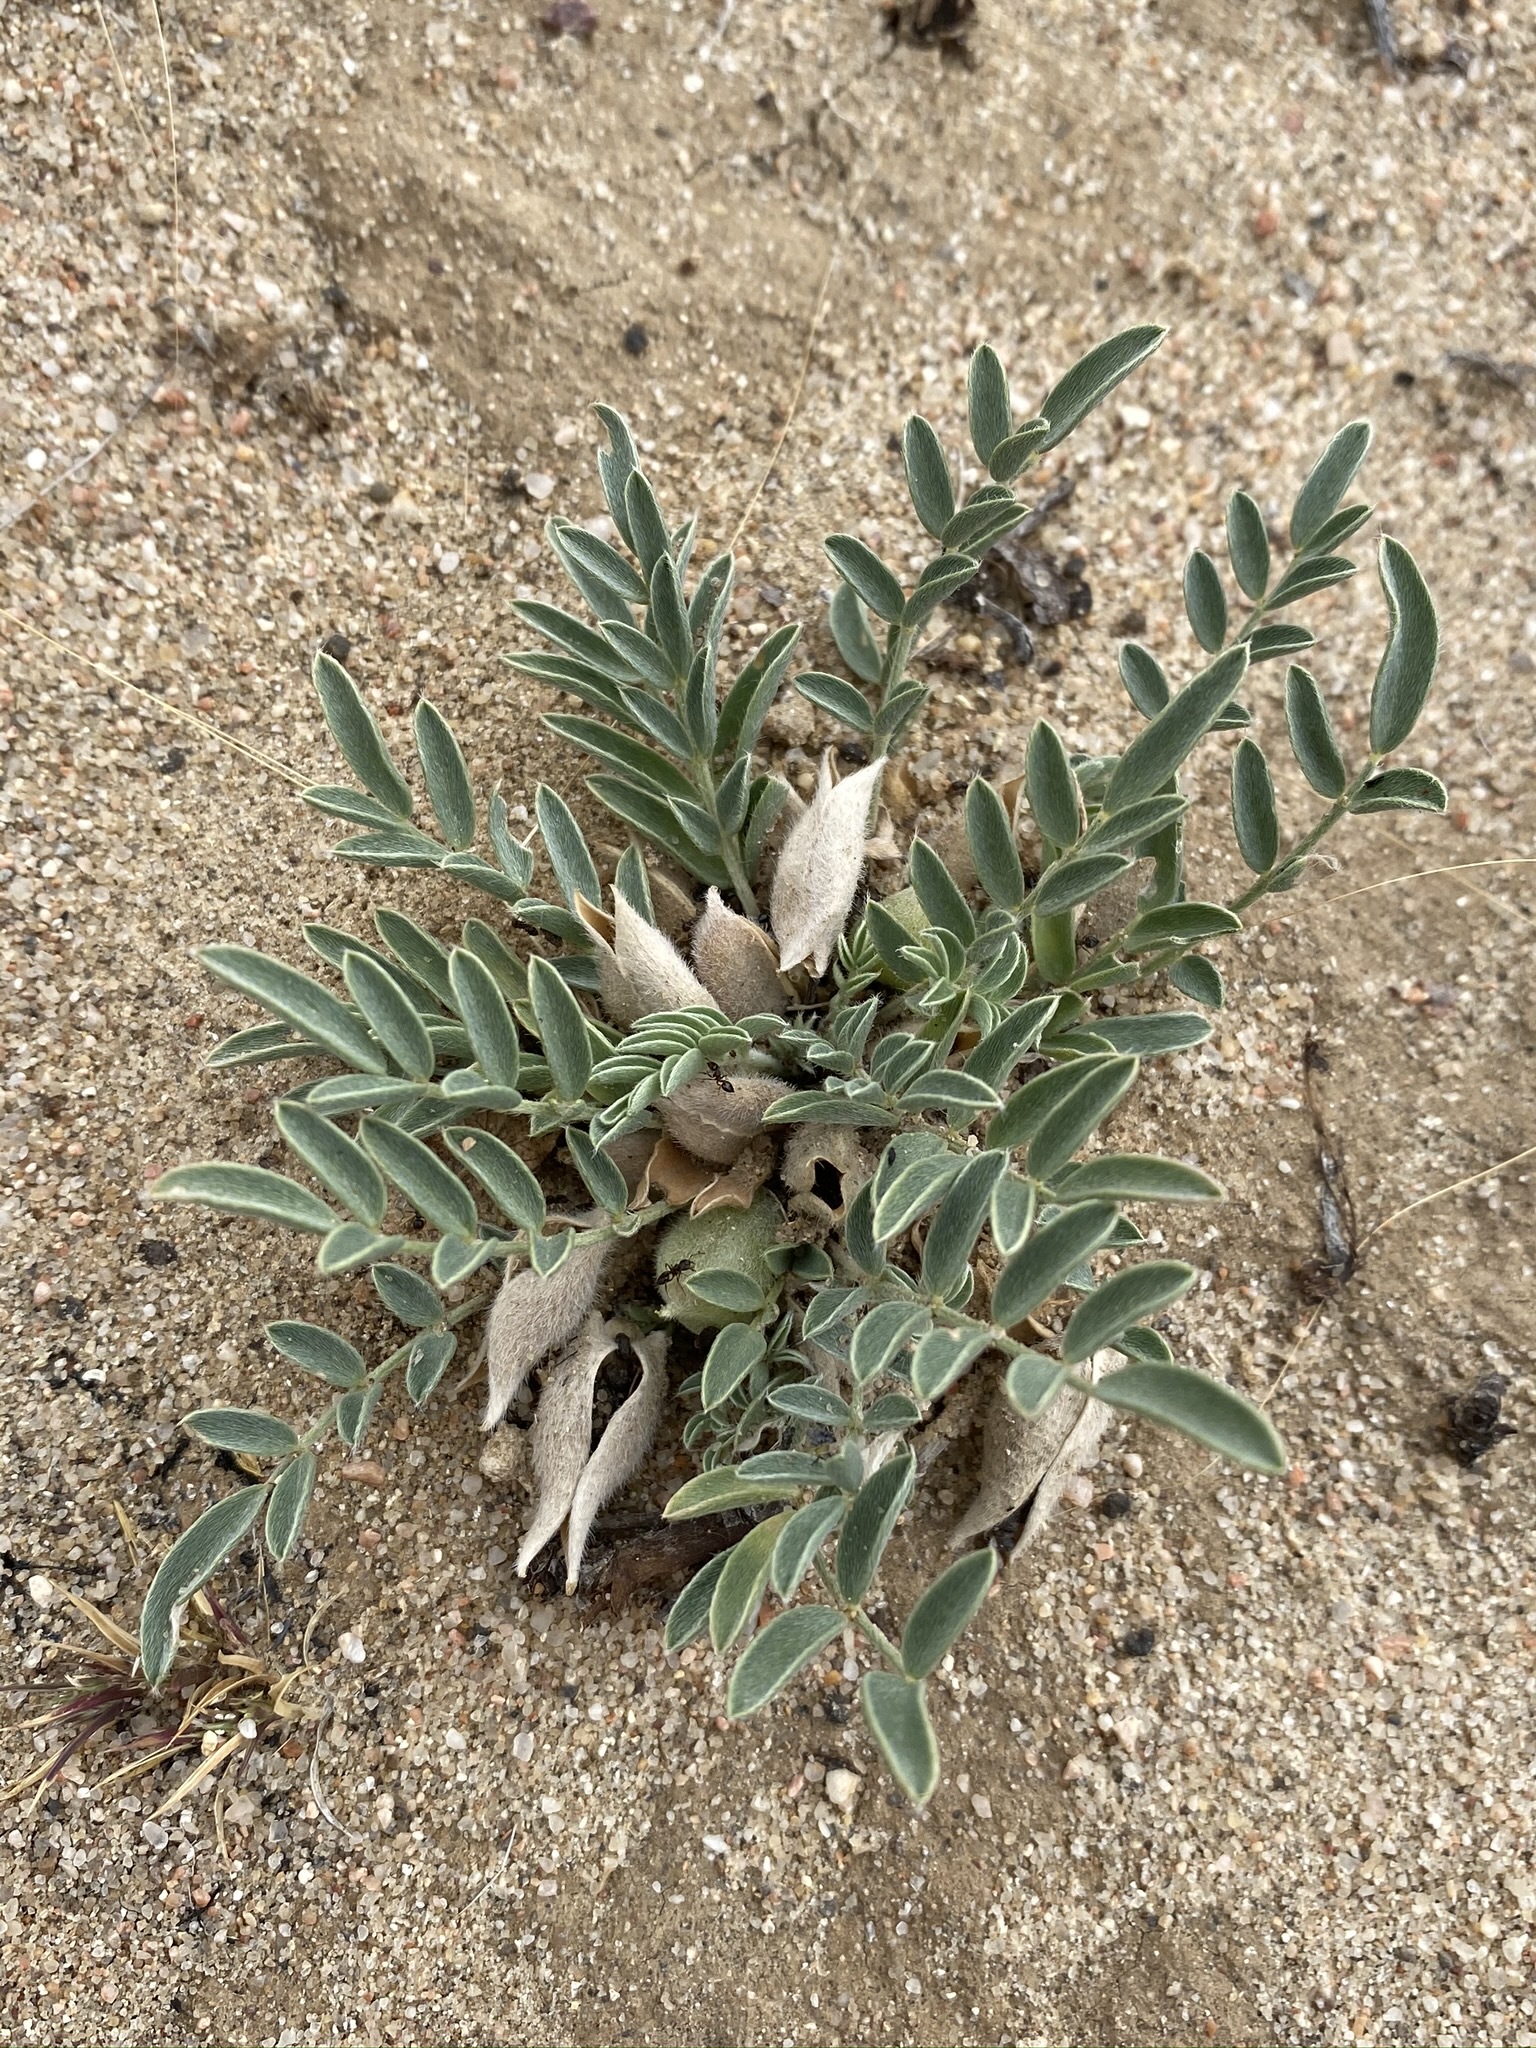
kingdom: Plantae
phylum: Tracheophyta
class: Magnoliopsida
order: Fabales
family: Fabaceae
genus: Astragalus
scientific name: Astragalus lotiflorus
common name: Lotus milk-vetch
